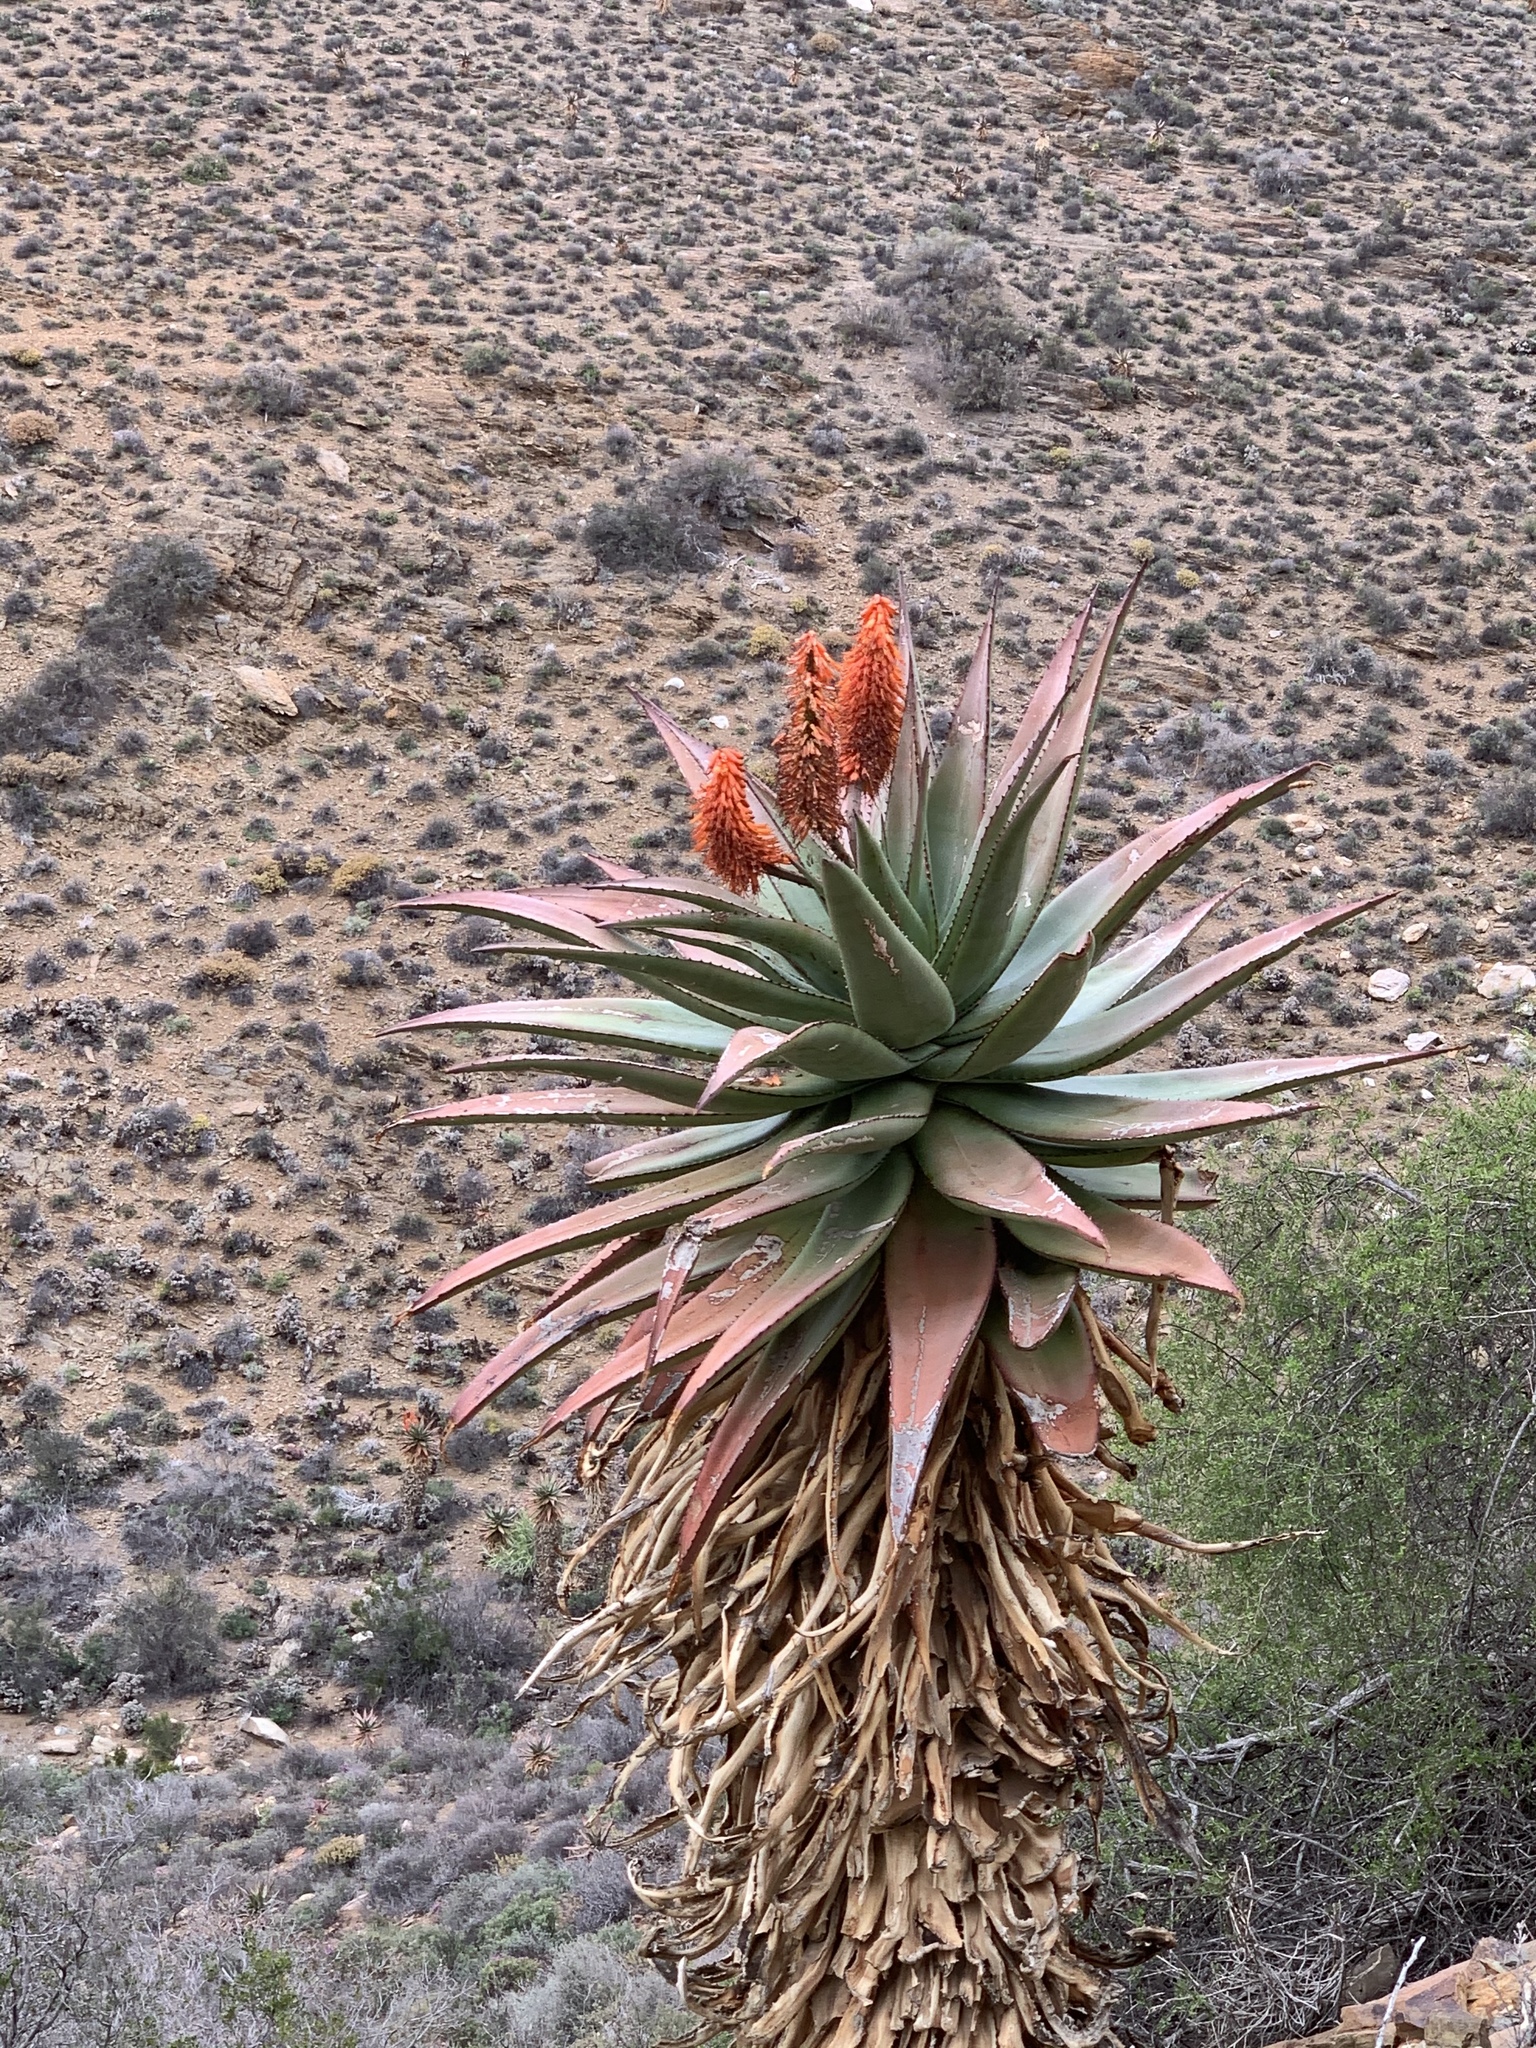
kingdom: Plantae
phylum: Tracheophyta
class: Liliopsida
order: Asparagales
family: Asphodelaceae
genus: Aloe
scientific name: Aloe ferox
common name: Bitter aloe
